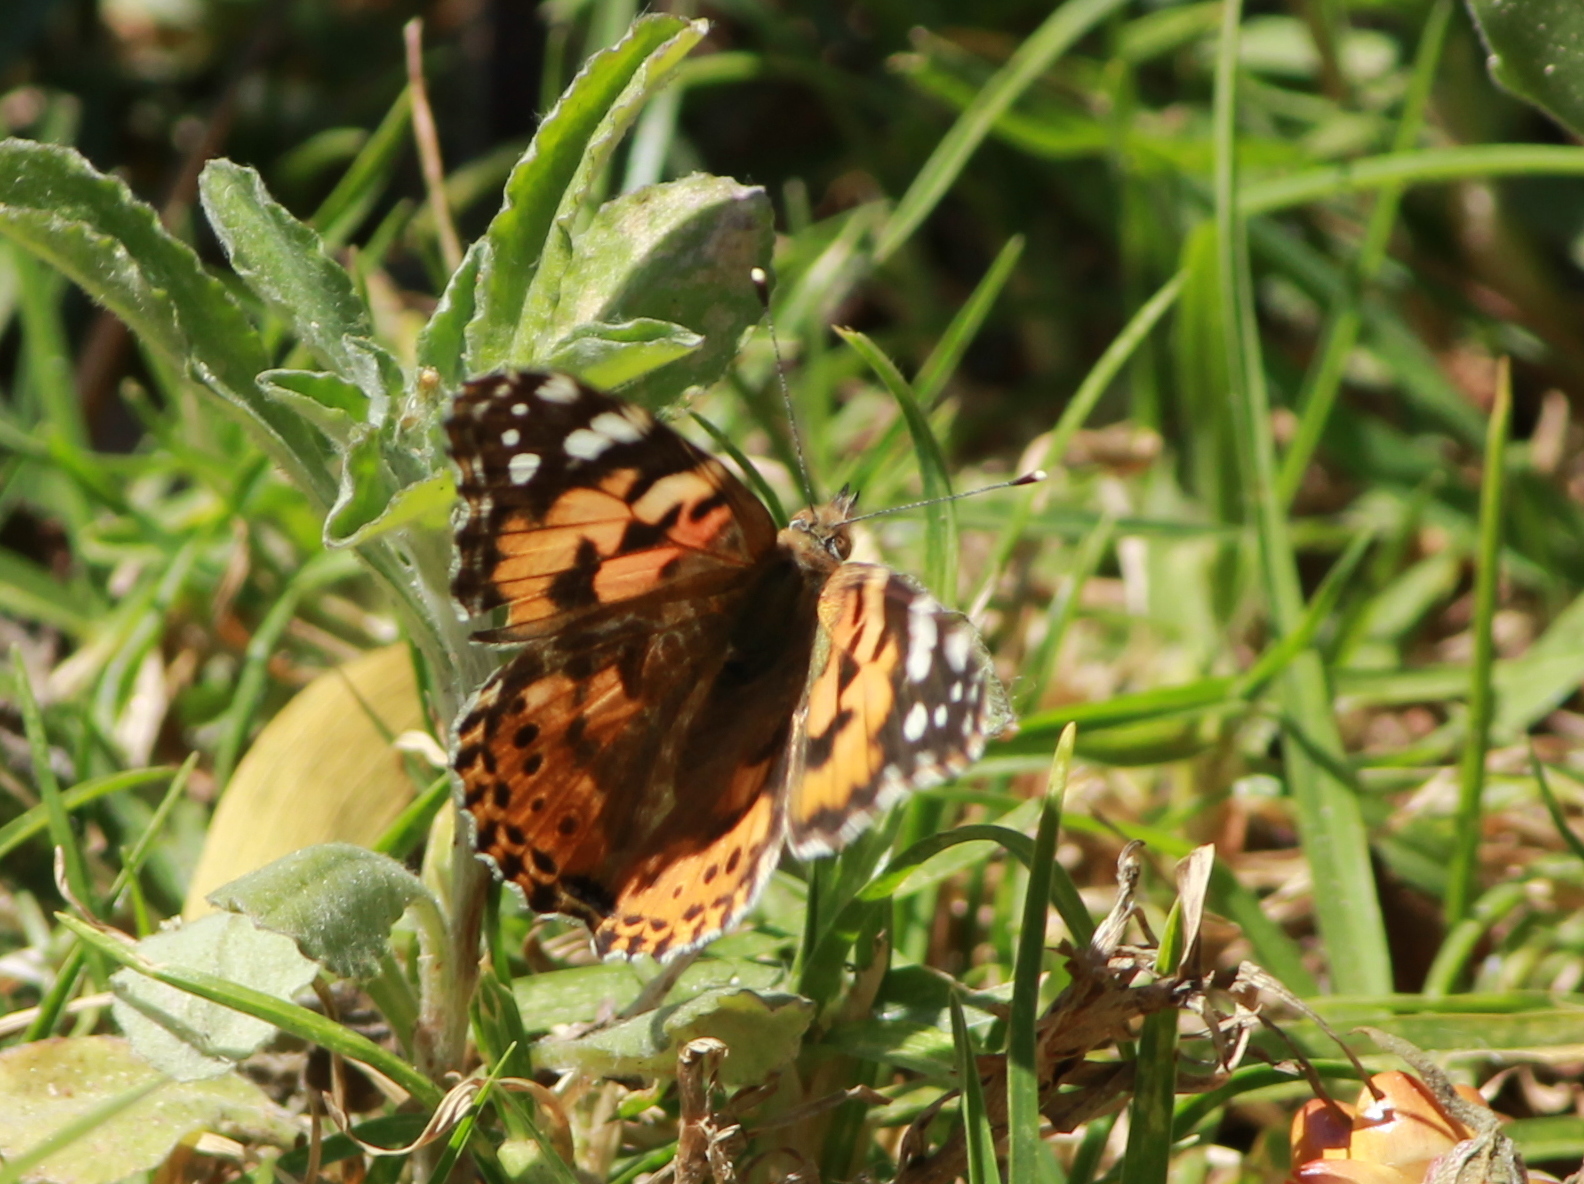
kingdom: Animalia
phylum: Arthropoda
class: Insecta
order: Lepidoptera
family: Nymphalidae
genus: Vanessa
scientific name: Vanessa cardui
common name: Painted lady
